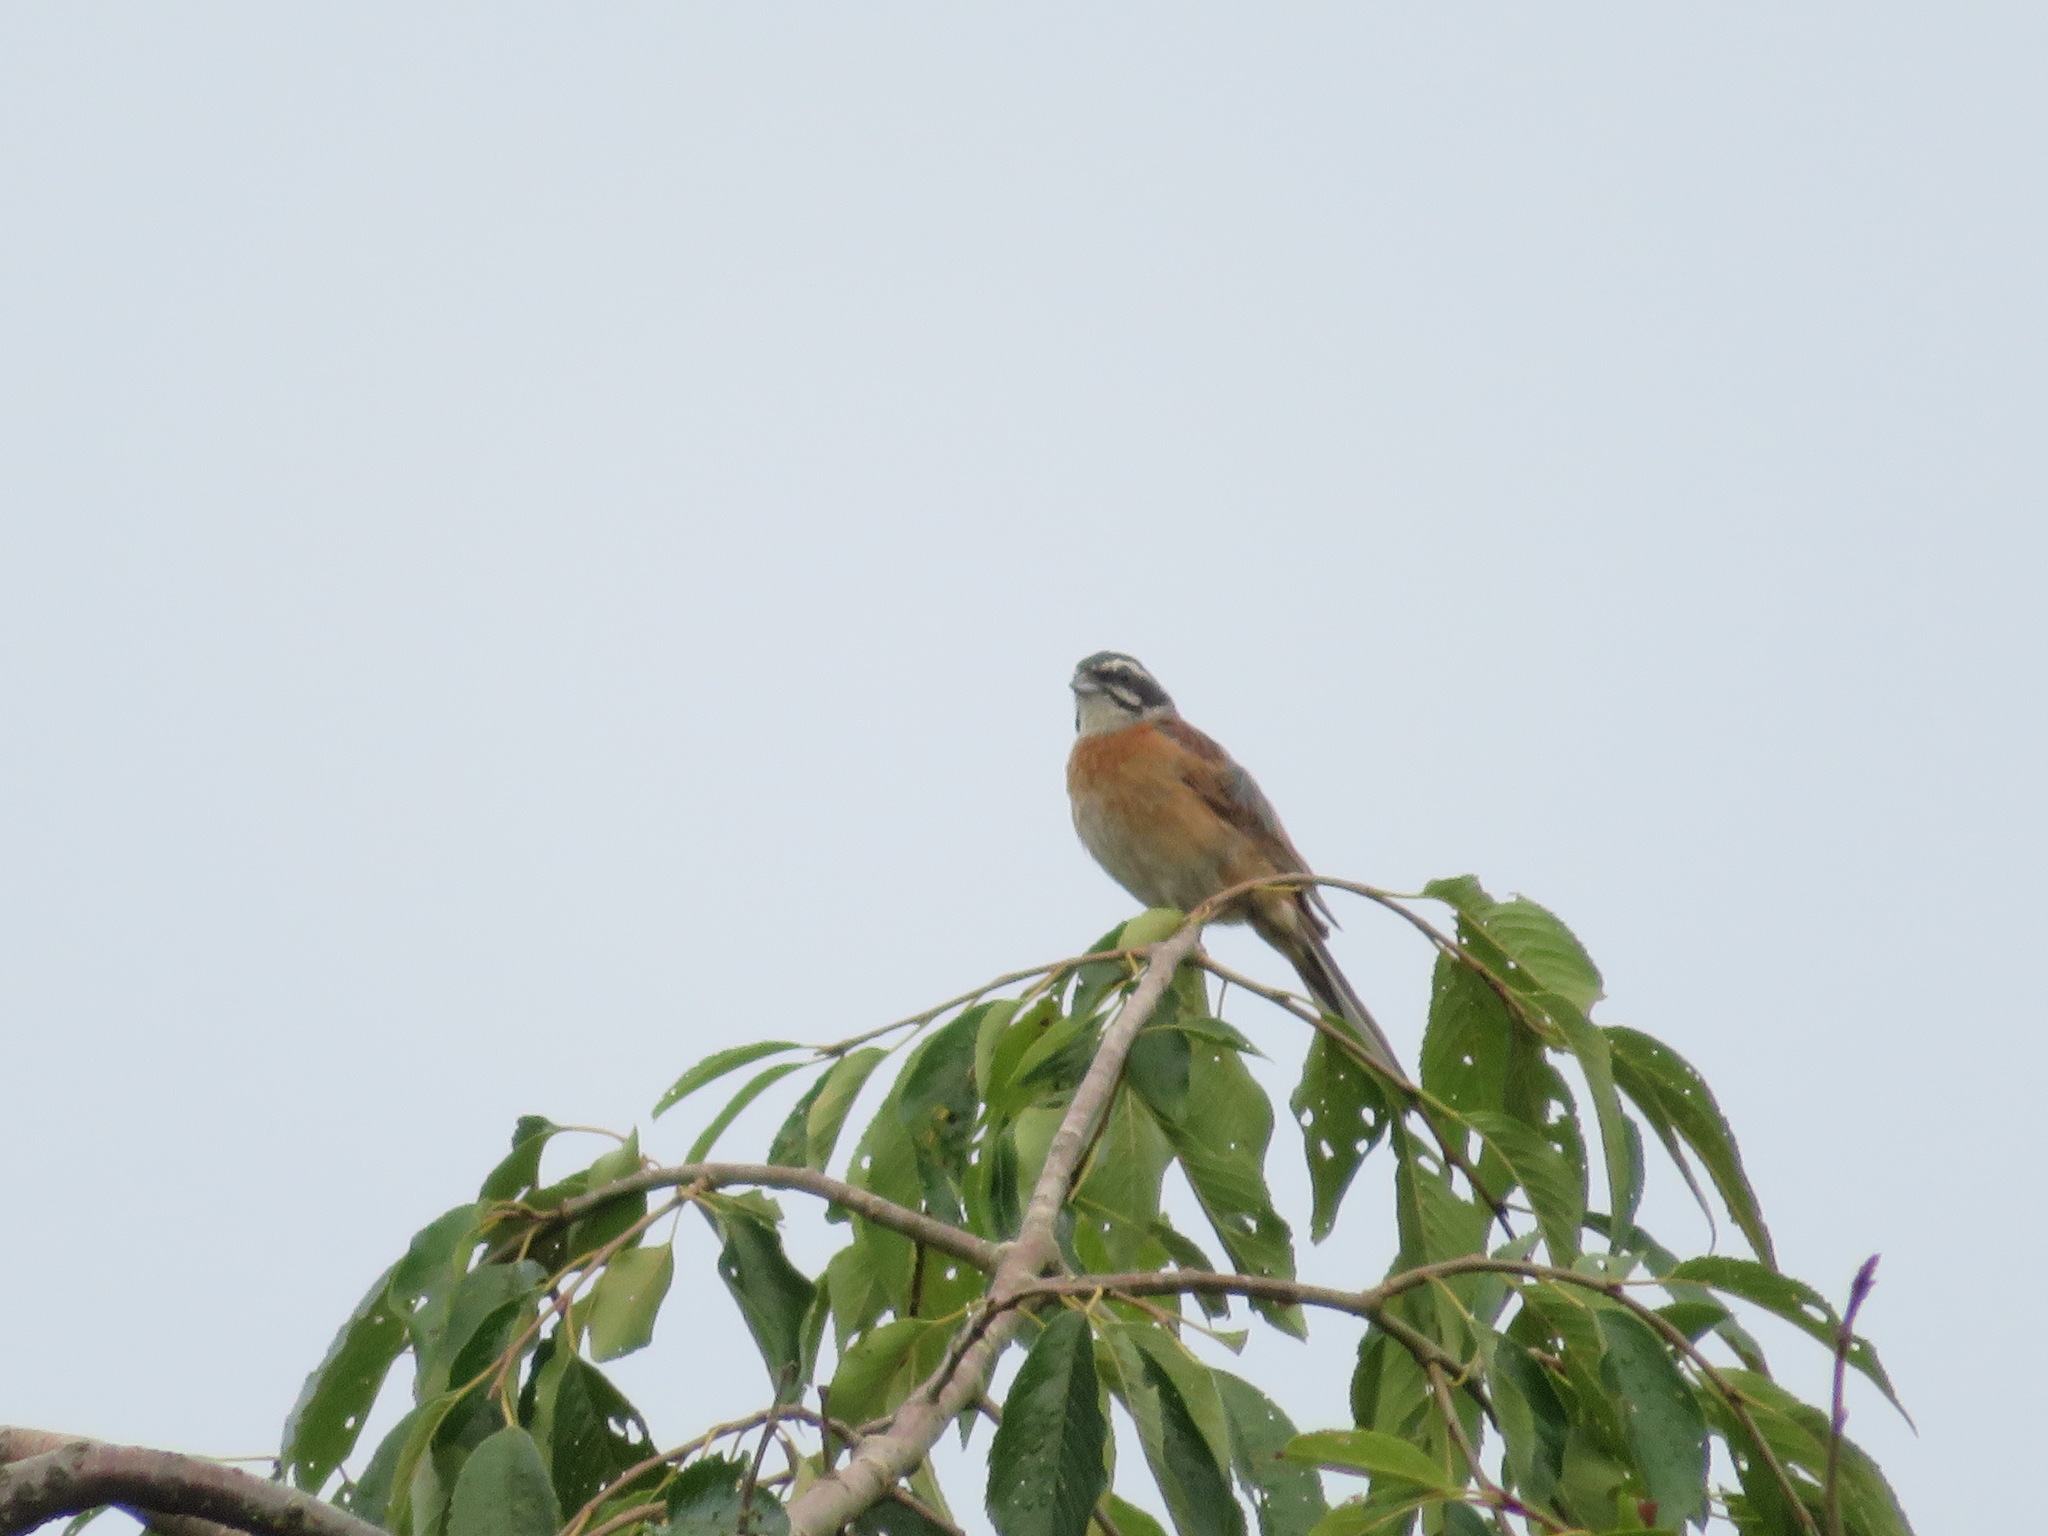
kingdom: Animalia
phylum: Chordata
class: Aves
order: Passeriformes
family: Emberizidae
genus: Emberiza
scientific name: Emberiza cioides
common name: Meadow bunting
